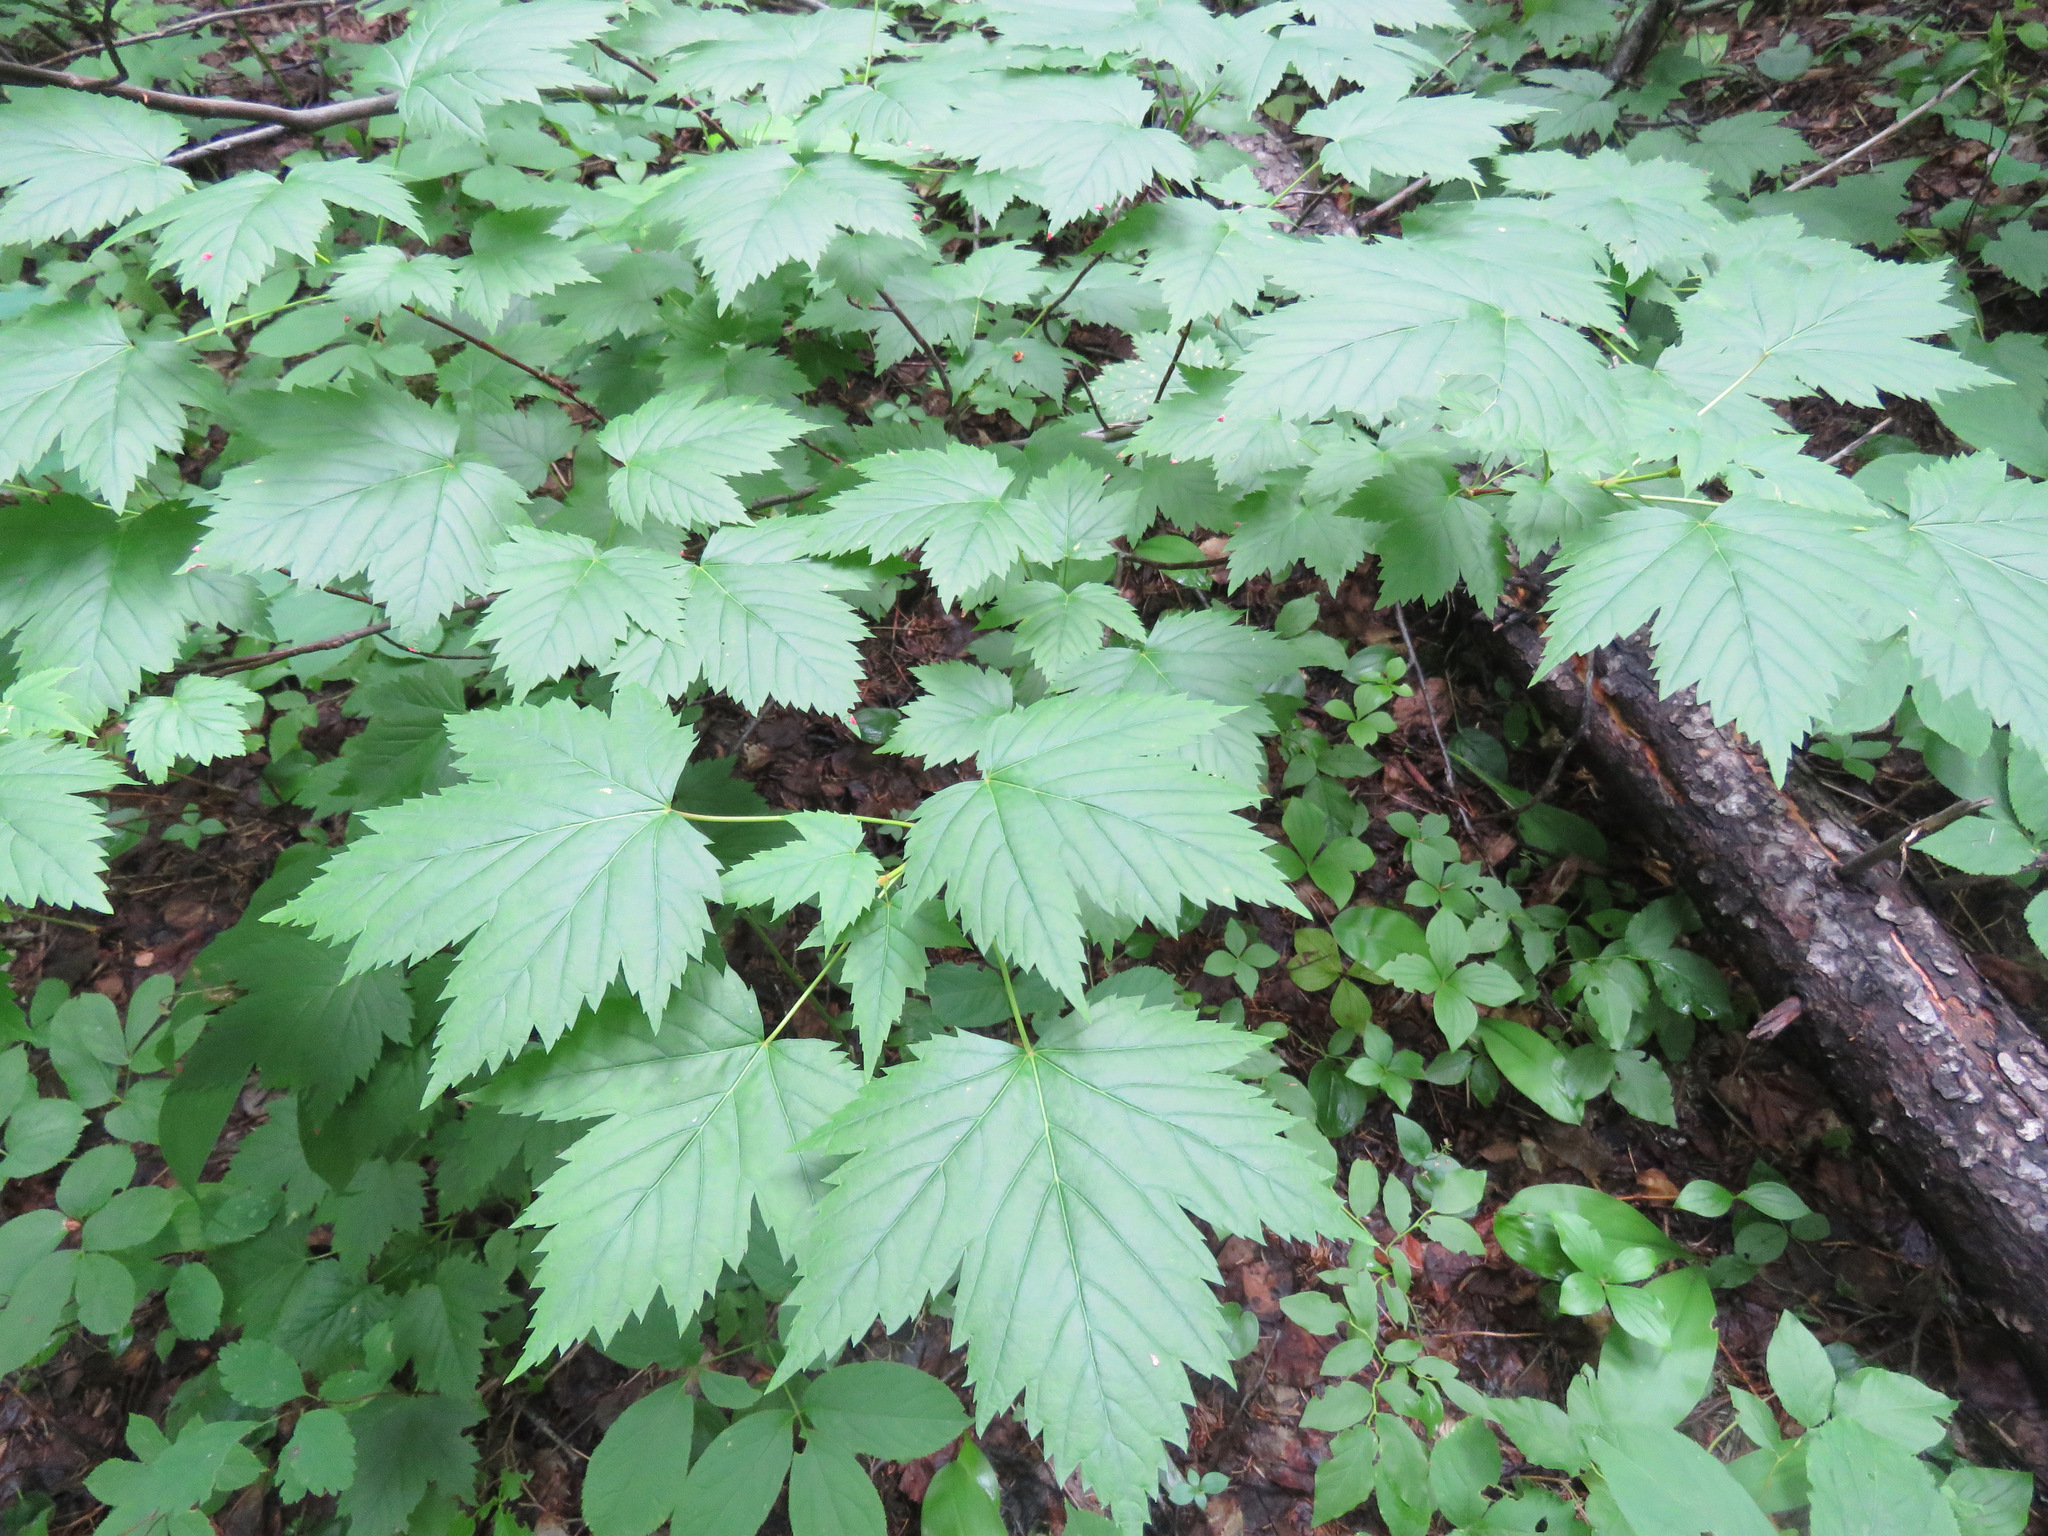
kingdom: Plantae
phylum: Tracheophyta
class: Magnoliopsida
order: Sapindales
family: Sapindaceae
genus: Acer
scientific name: Acer glabrum
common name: Rocky mountain maple
